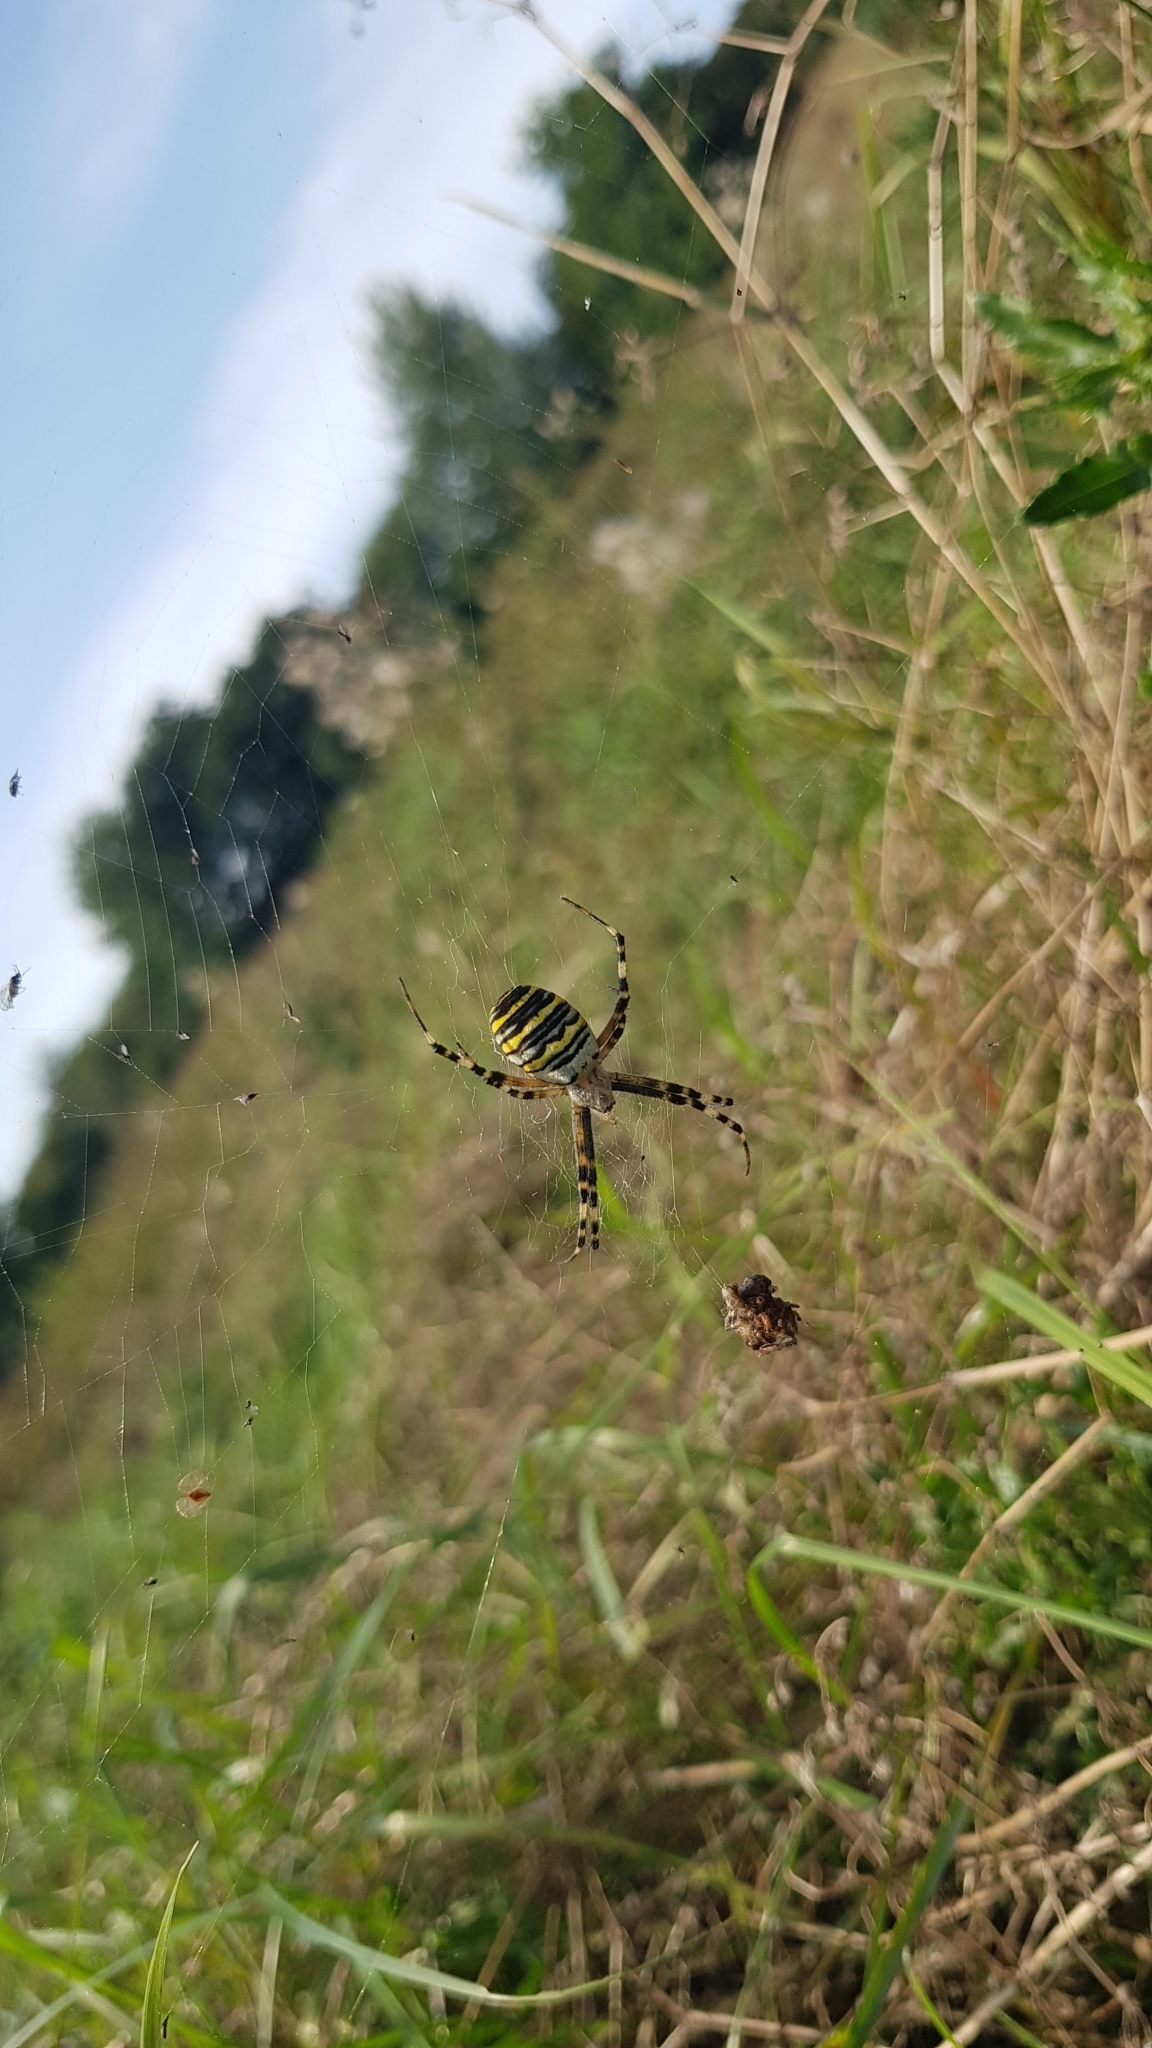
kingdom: Animalia
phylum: Arthropoda
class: Arachnida
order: Araneae
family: Araneidae
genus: Argiope
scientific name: Argiope bruennichi
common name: Wasp spider
